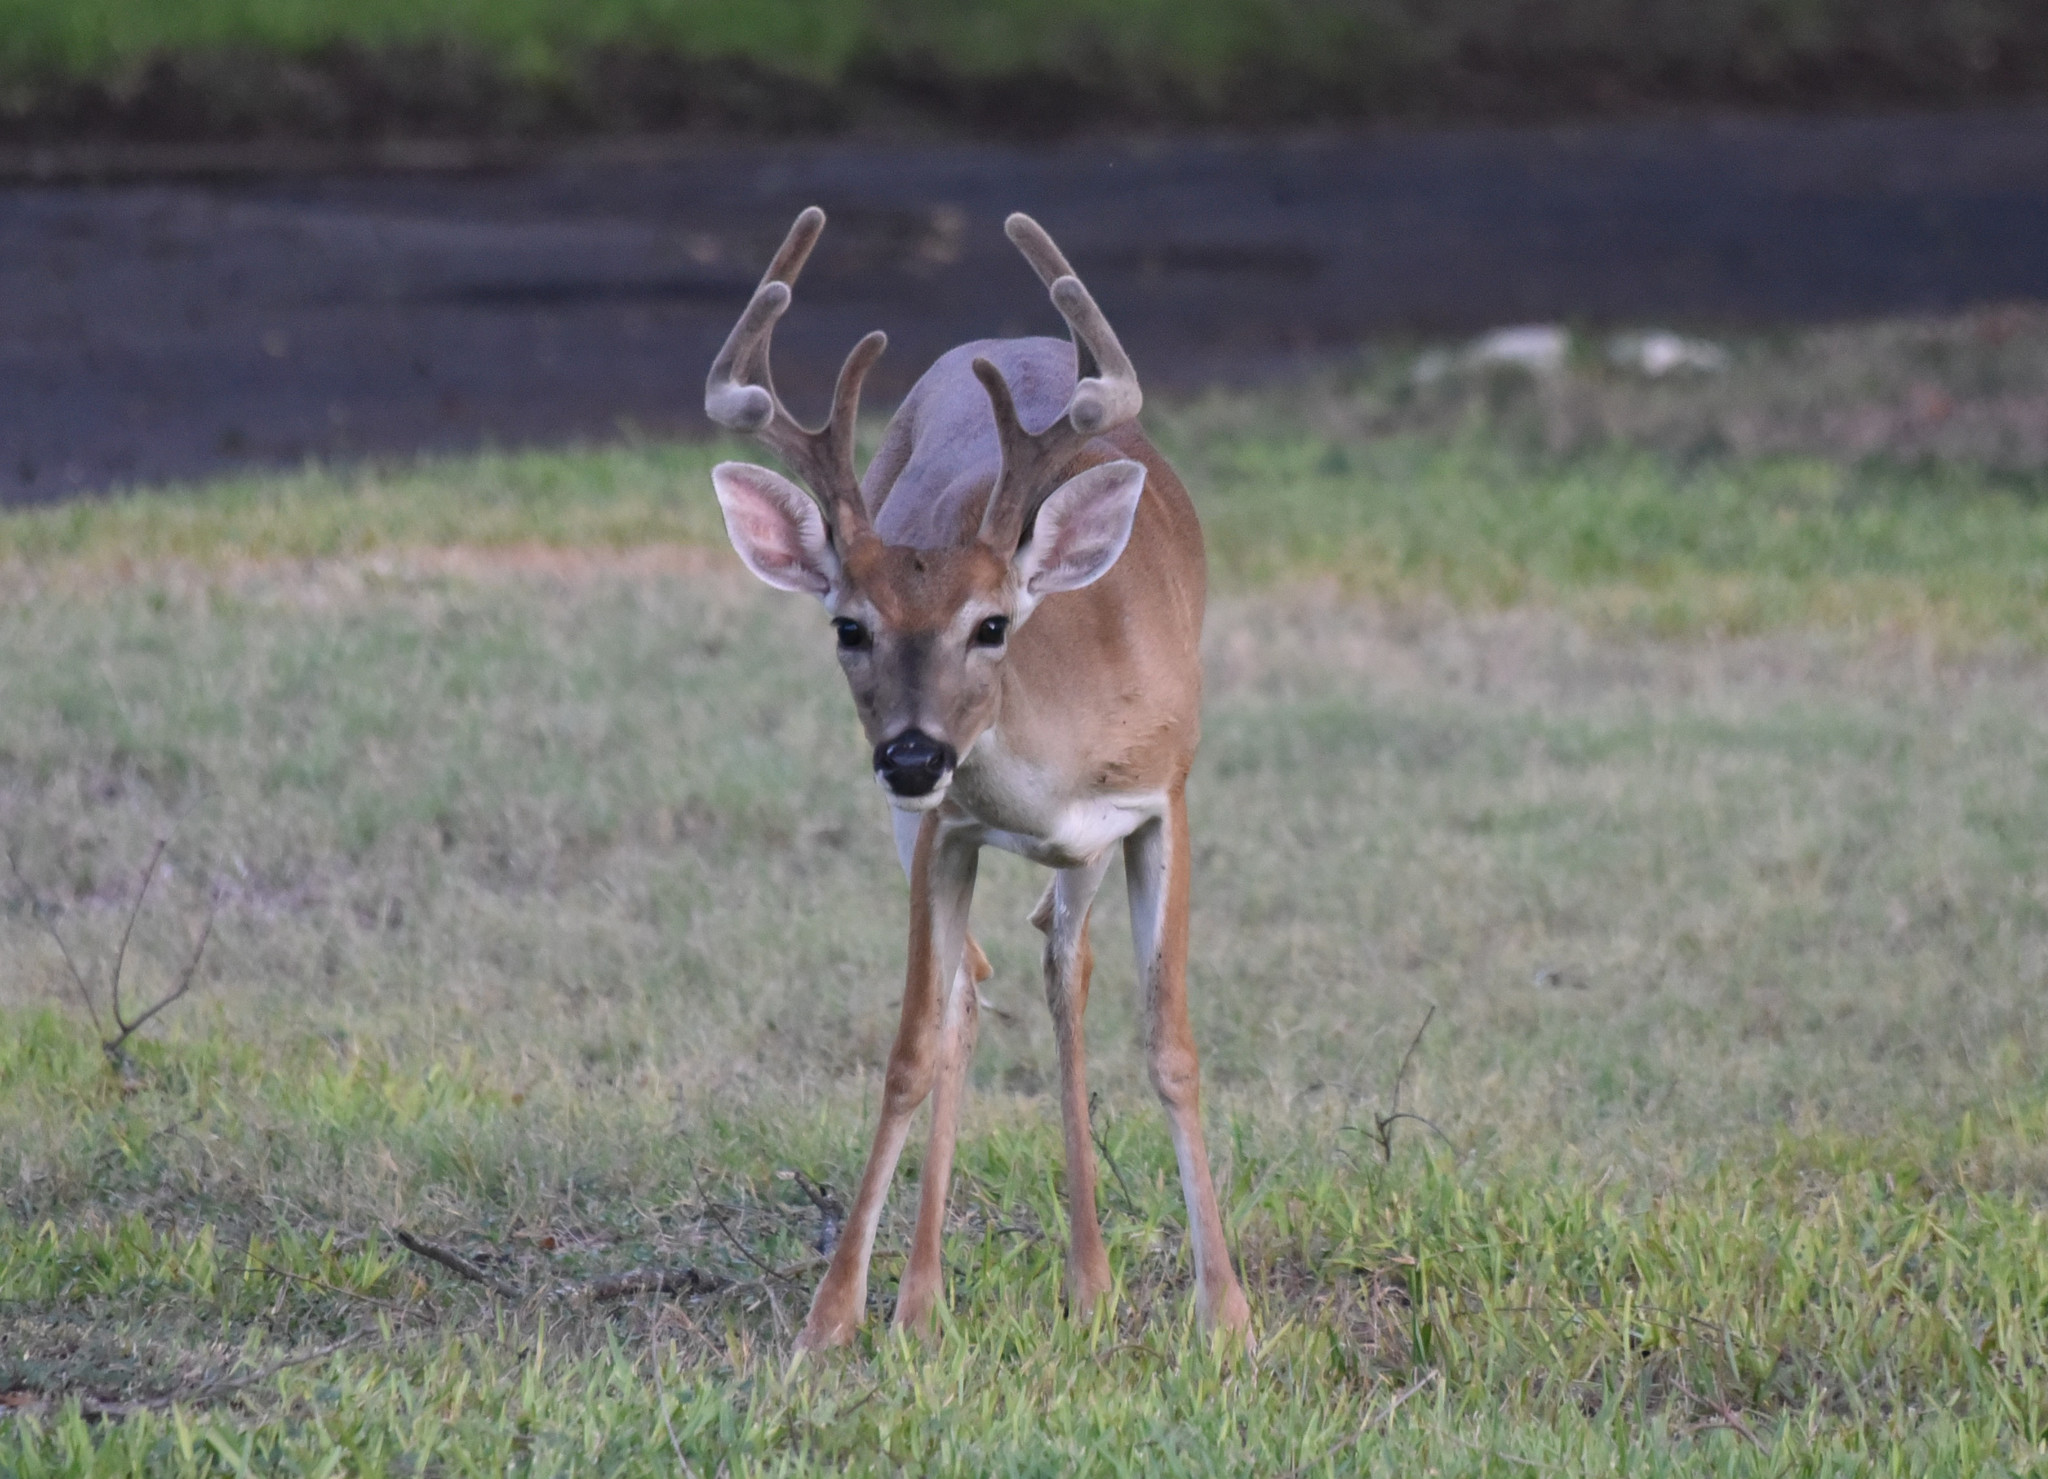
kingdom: Animalia
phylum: Chordata
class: Mammalia
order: Artiodactyla
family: Cervidae
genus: Odocoileus
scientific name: Odocoileus virginianus
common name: White-tailed deer
